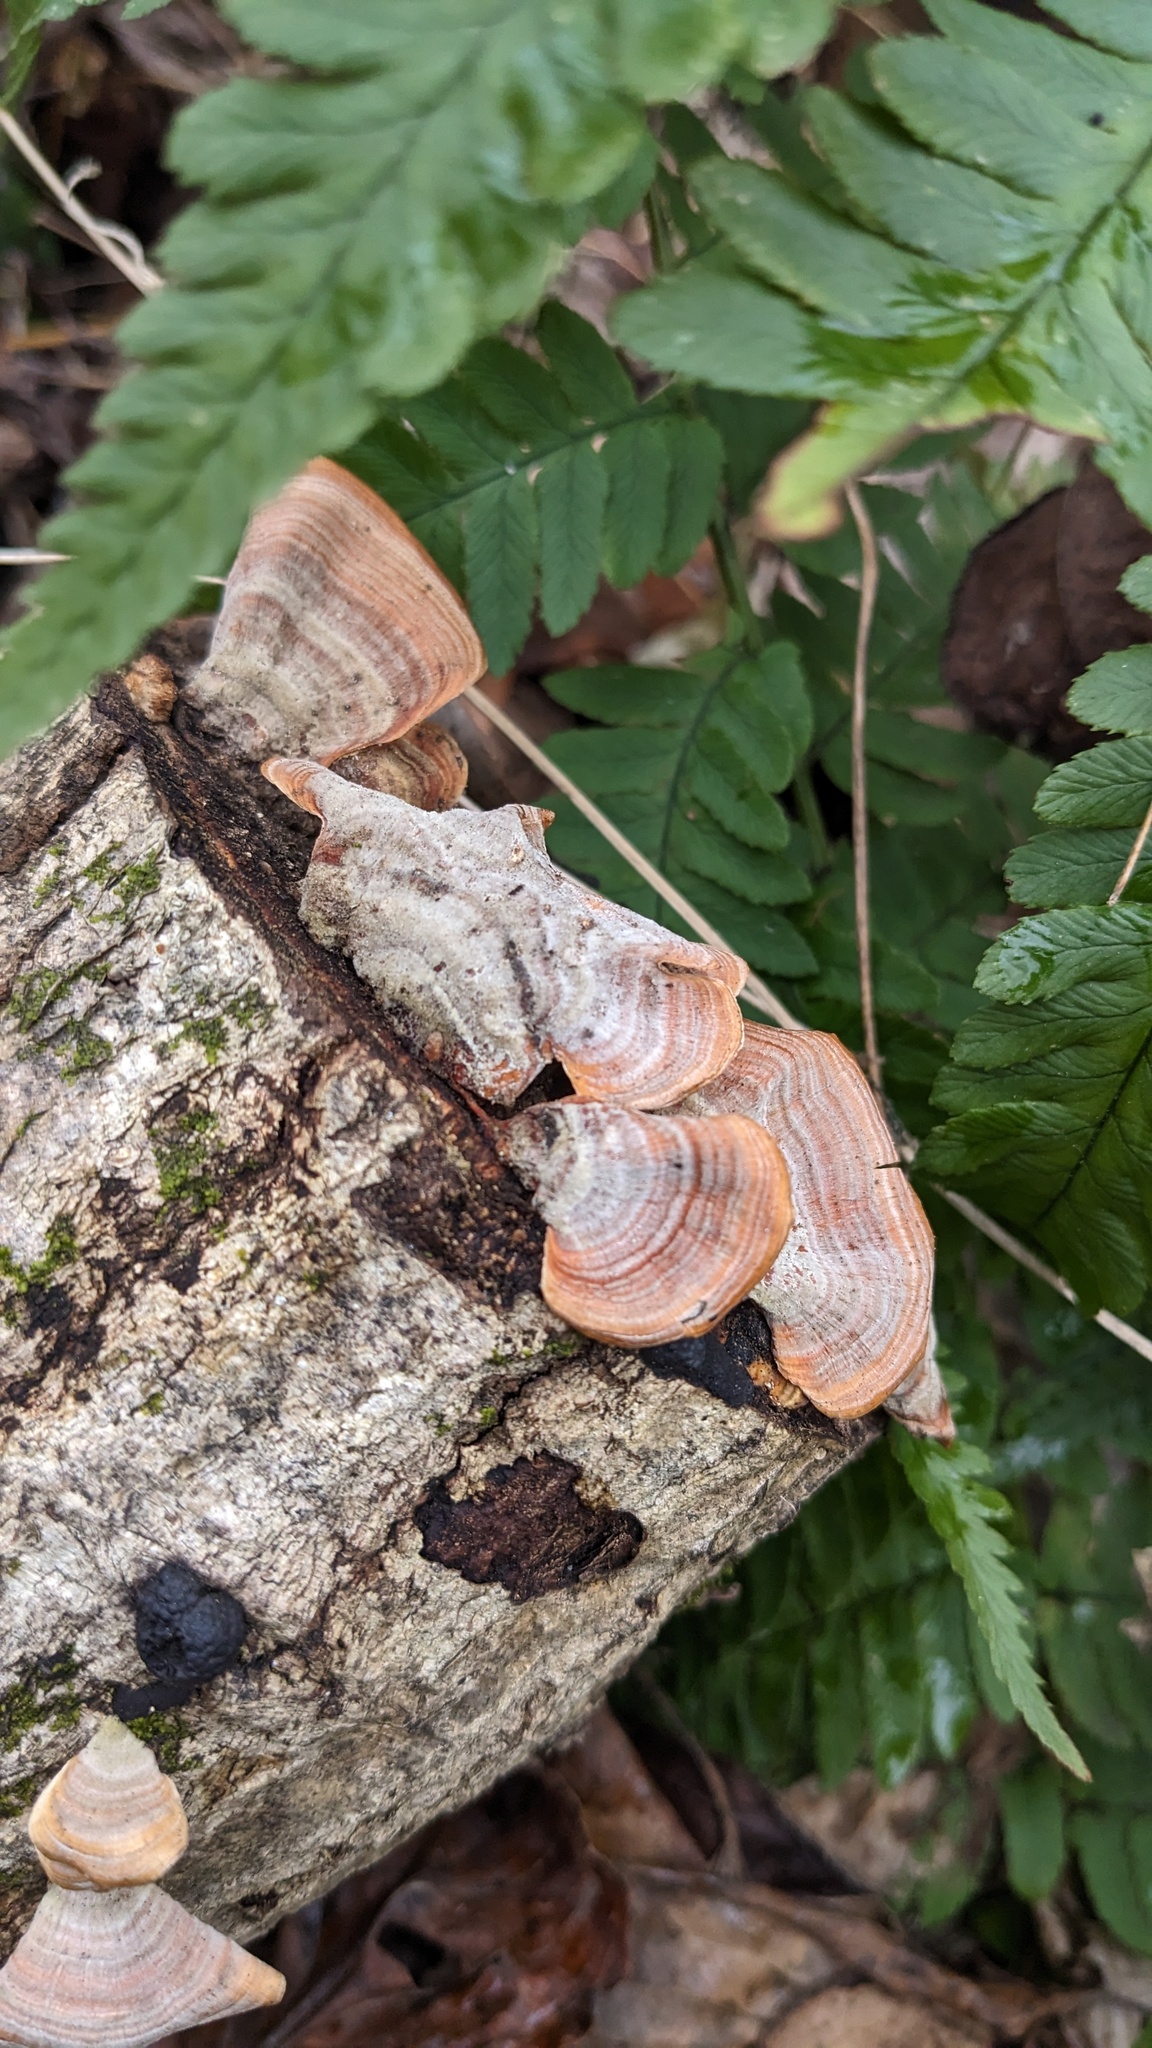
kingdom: Fungi
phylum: Basidiomycota
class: Agaricomycetes
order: Russulales
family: Stereaceae
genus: Stereum
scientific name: Stereum ostrea
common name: False turkeytail
